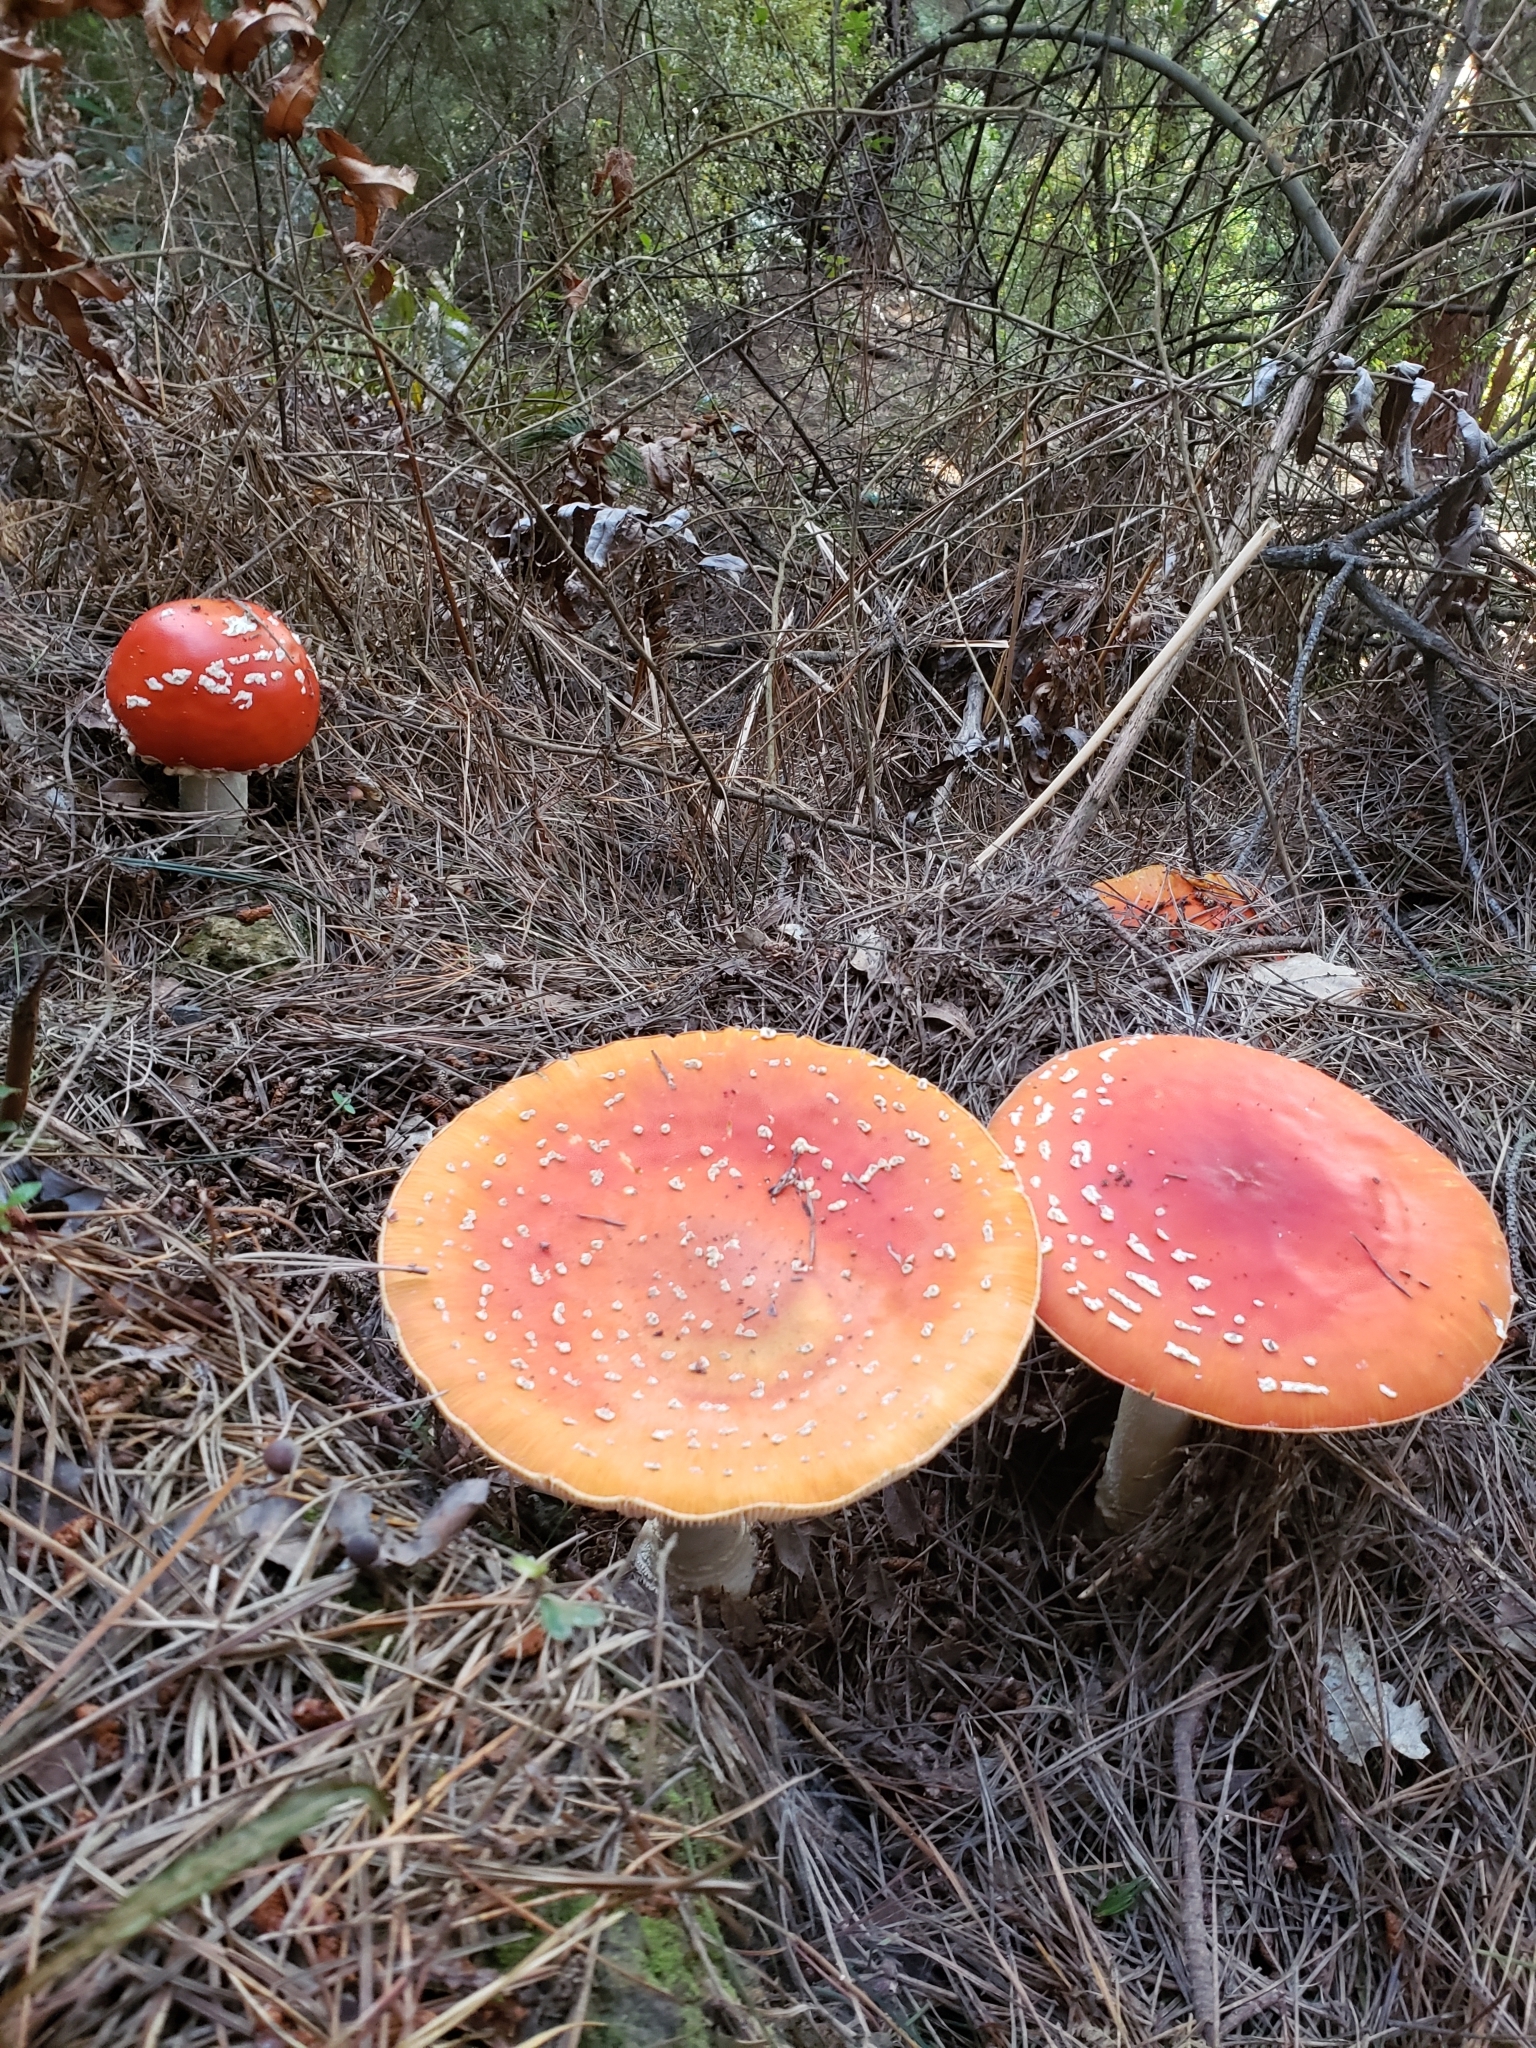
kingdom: Fungi
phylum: Basidiomycota
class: Agaricomycetes
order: Agaricales
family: Amanitaceae
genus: Amanita
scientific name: Amanita muscaria
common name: Fly agaric
